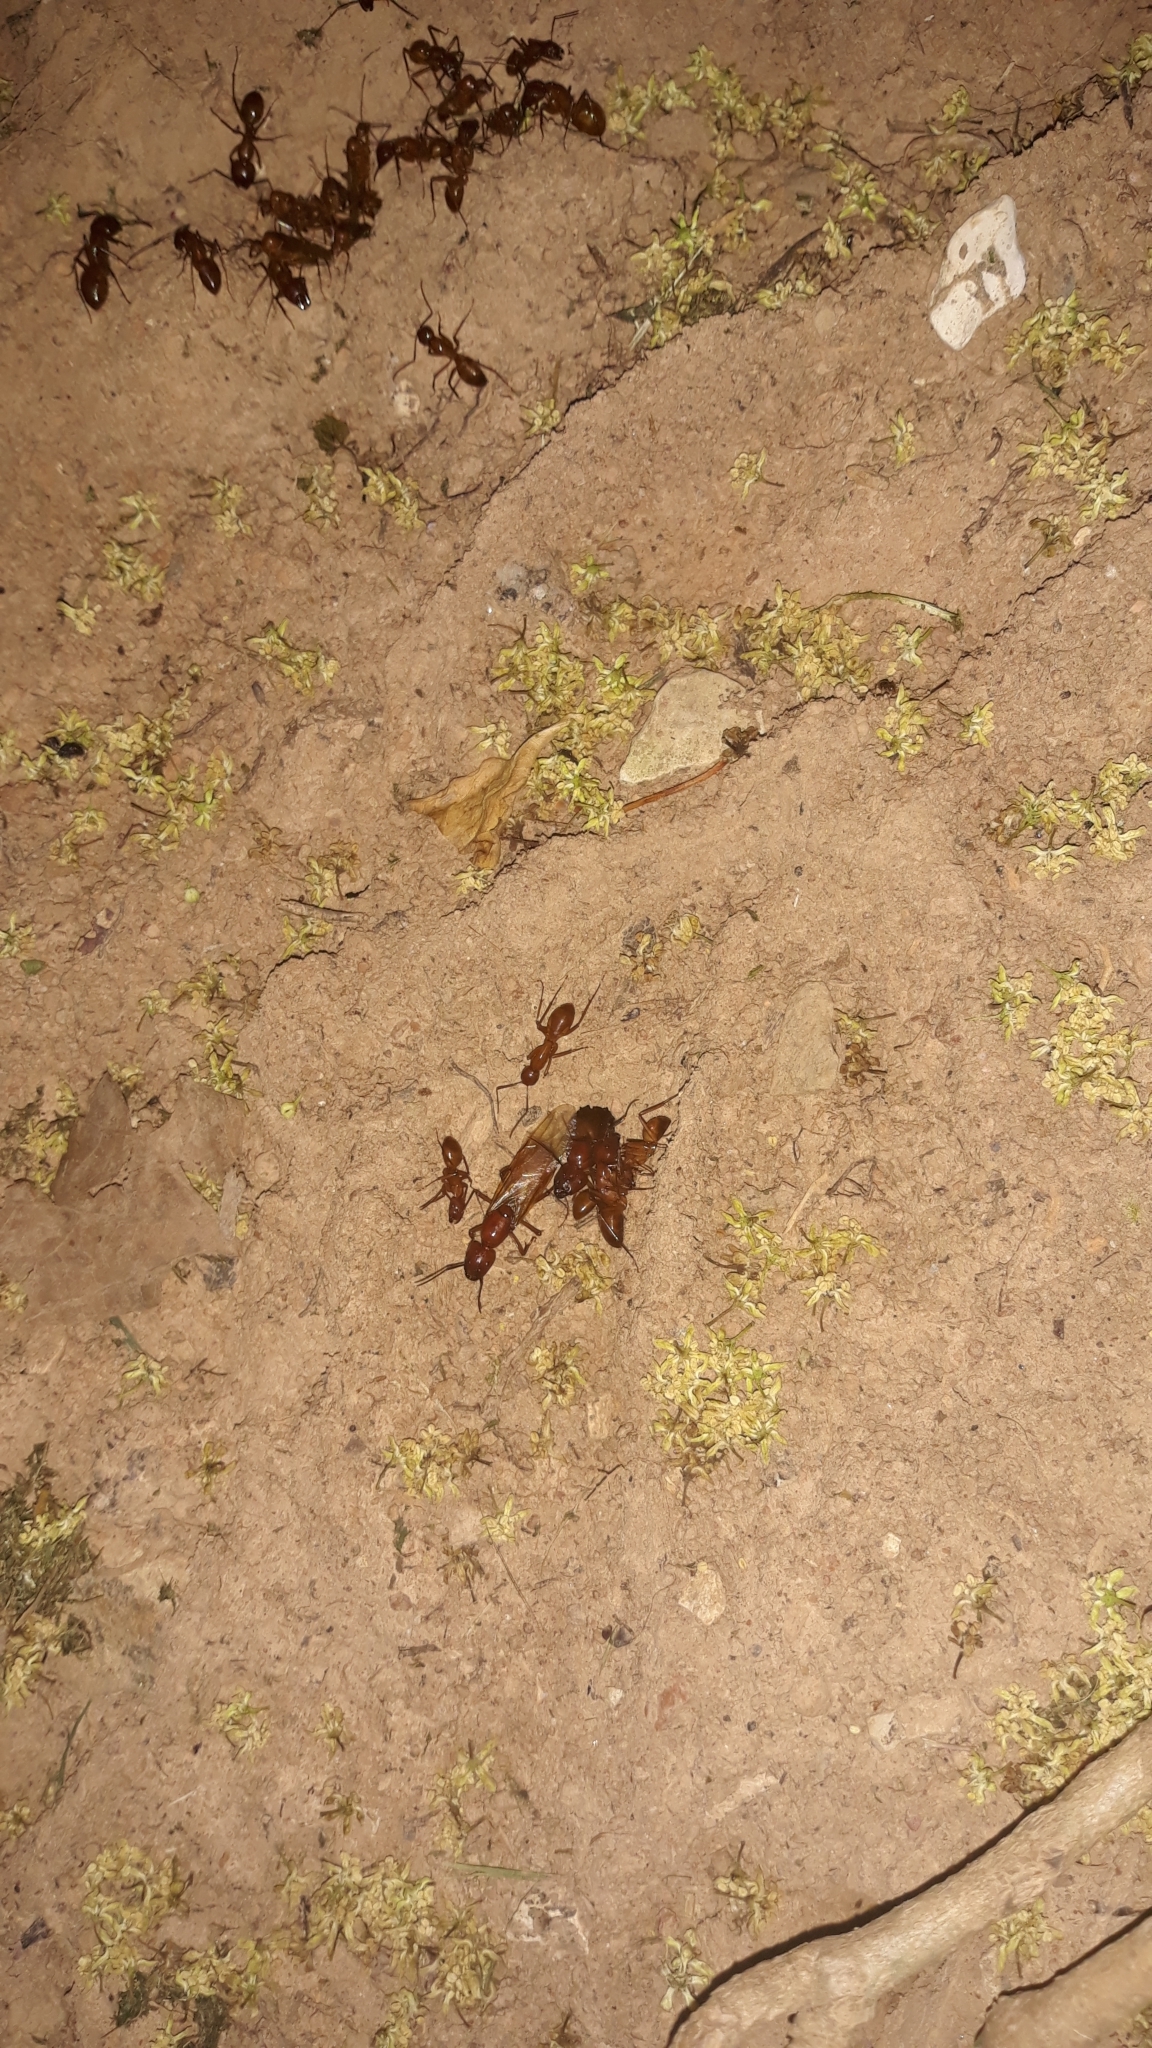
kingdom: Animalia
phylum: Arthropoda
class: Insecta
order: Hymenoptera
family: Formicidae
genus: Camponotus
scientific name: Camponotus castaneus
